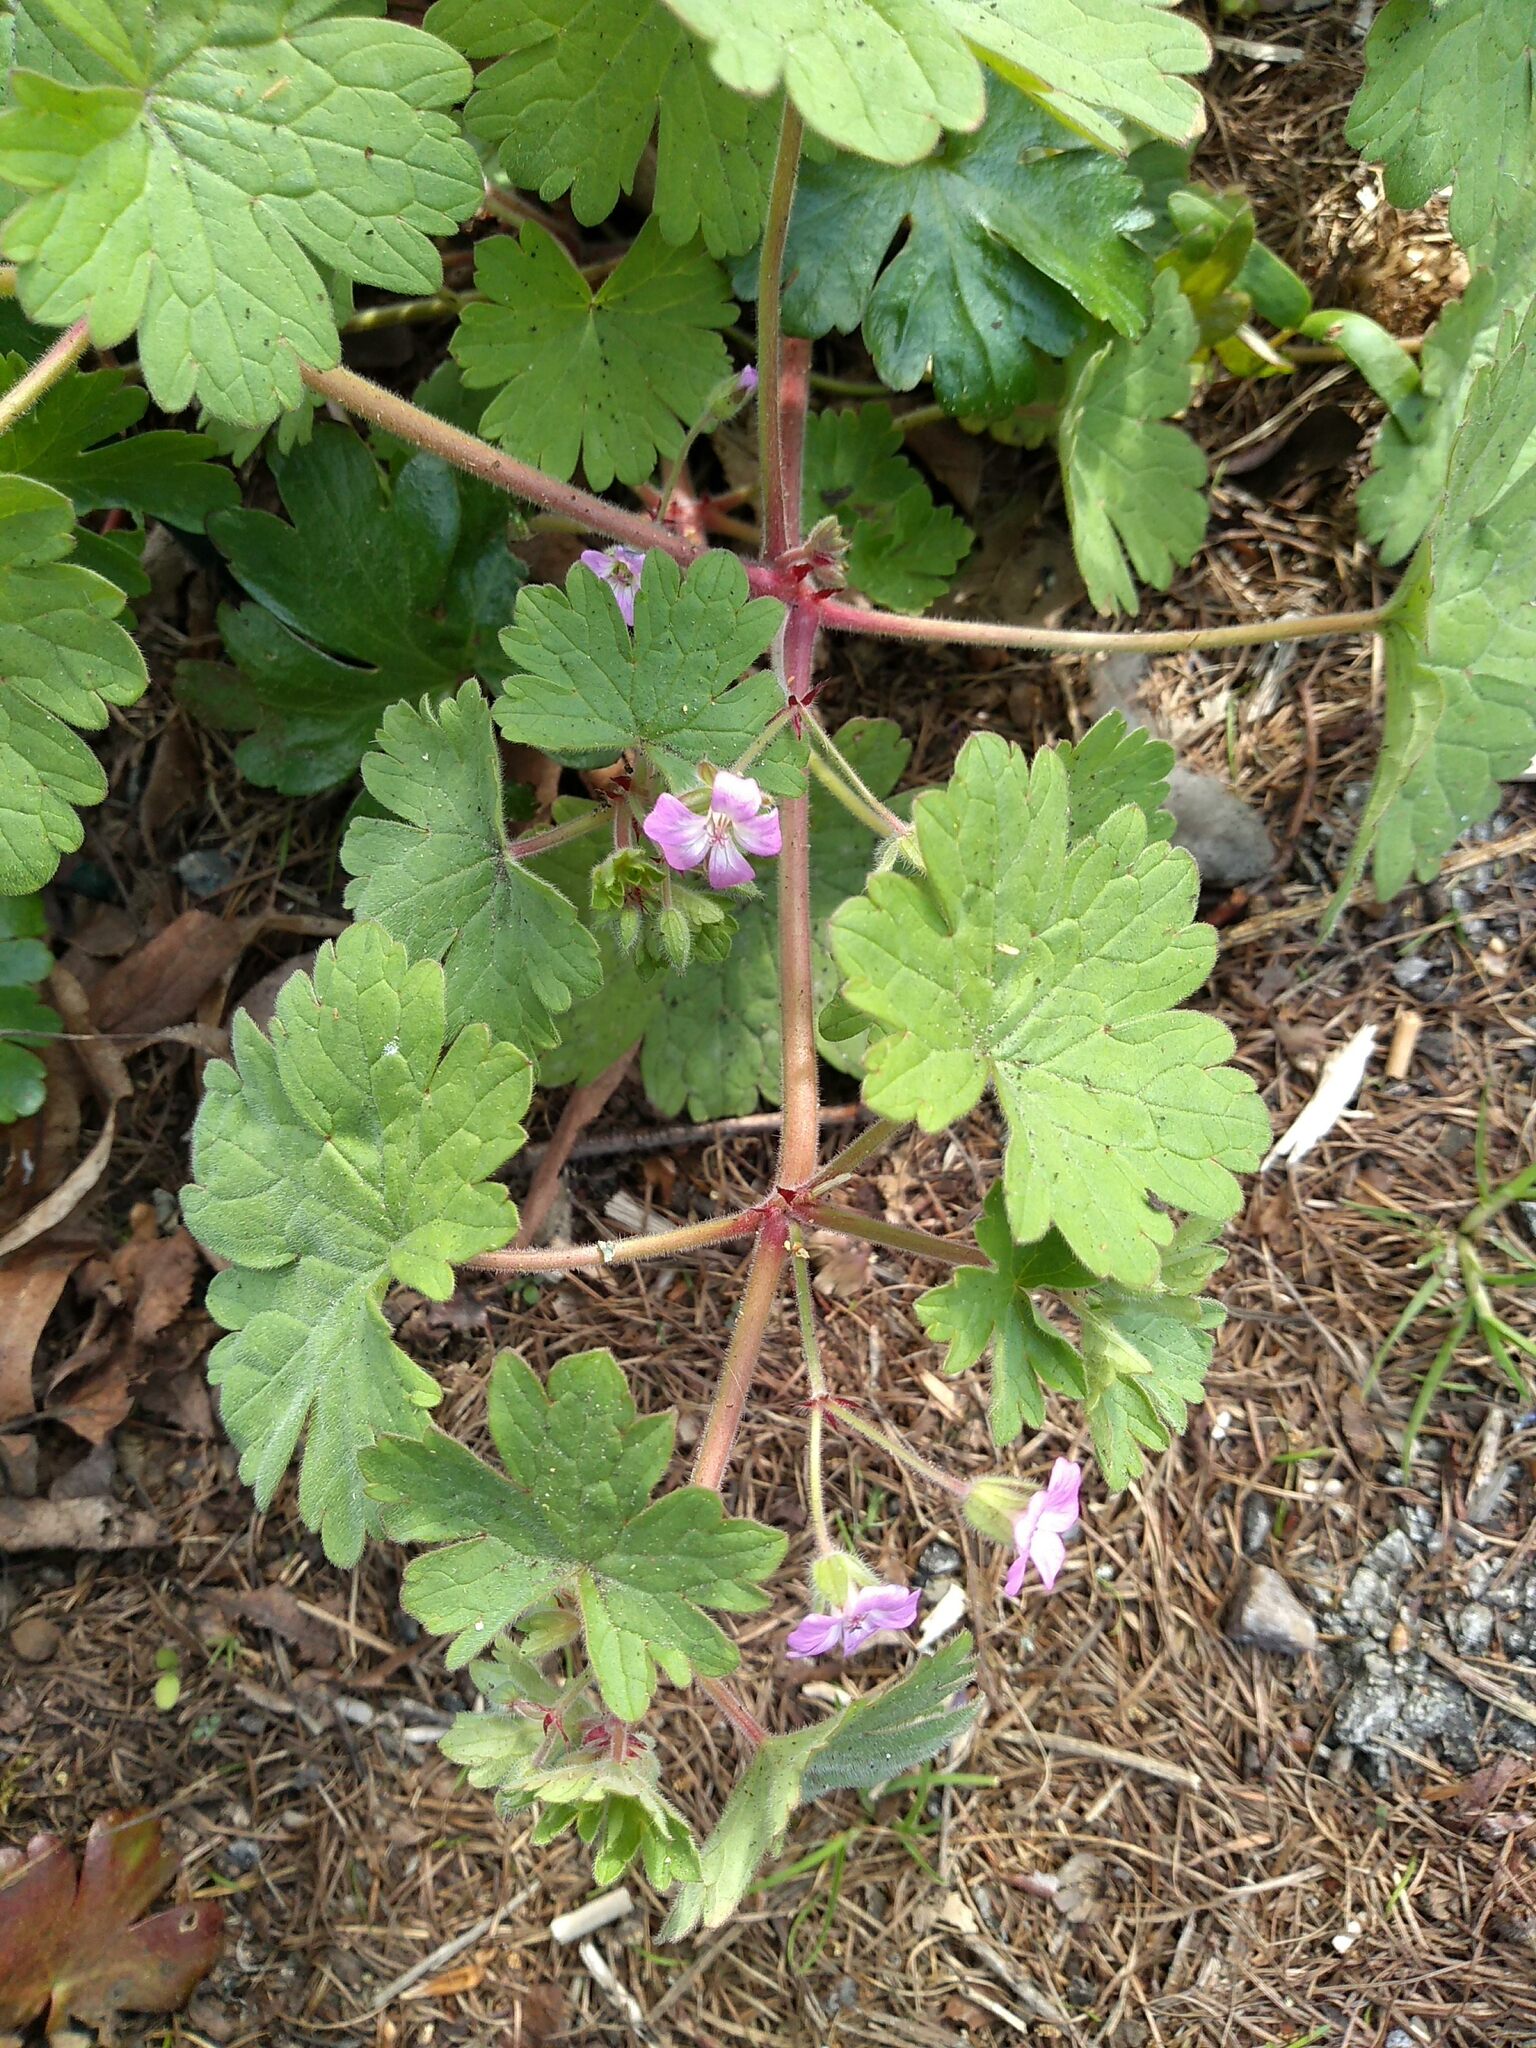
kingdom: Plantae
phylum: Tracheophyta
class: Magnoliopsida
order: Geraniales
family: Geraniaceae
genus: Geranium
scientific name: Geranium rotundifolium
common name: Round-leaved crane's-bill
